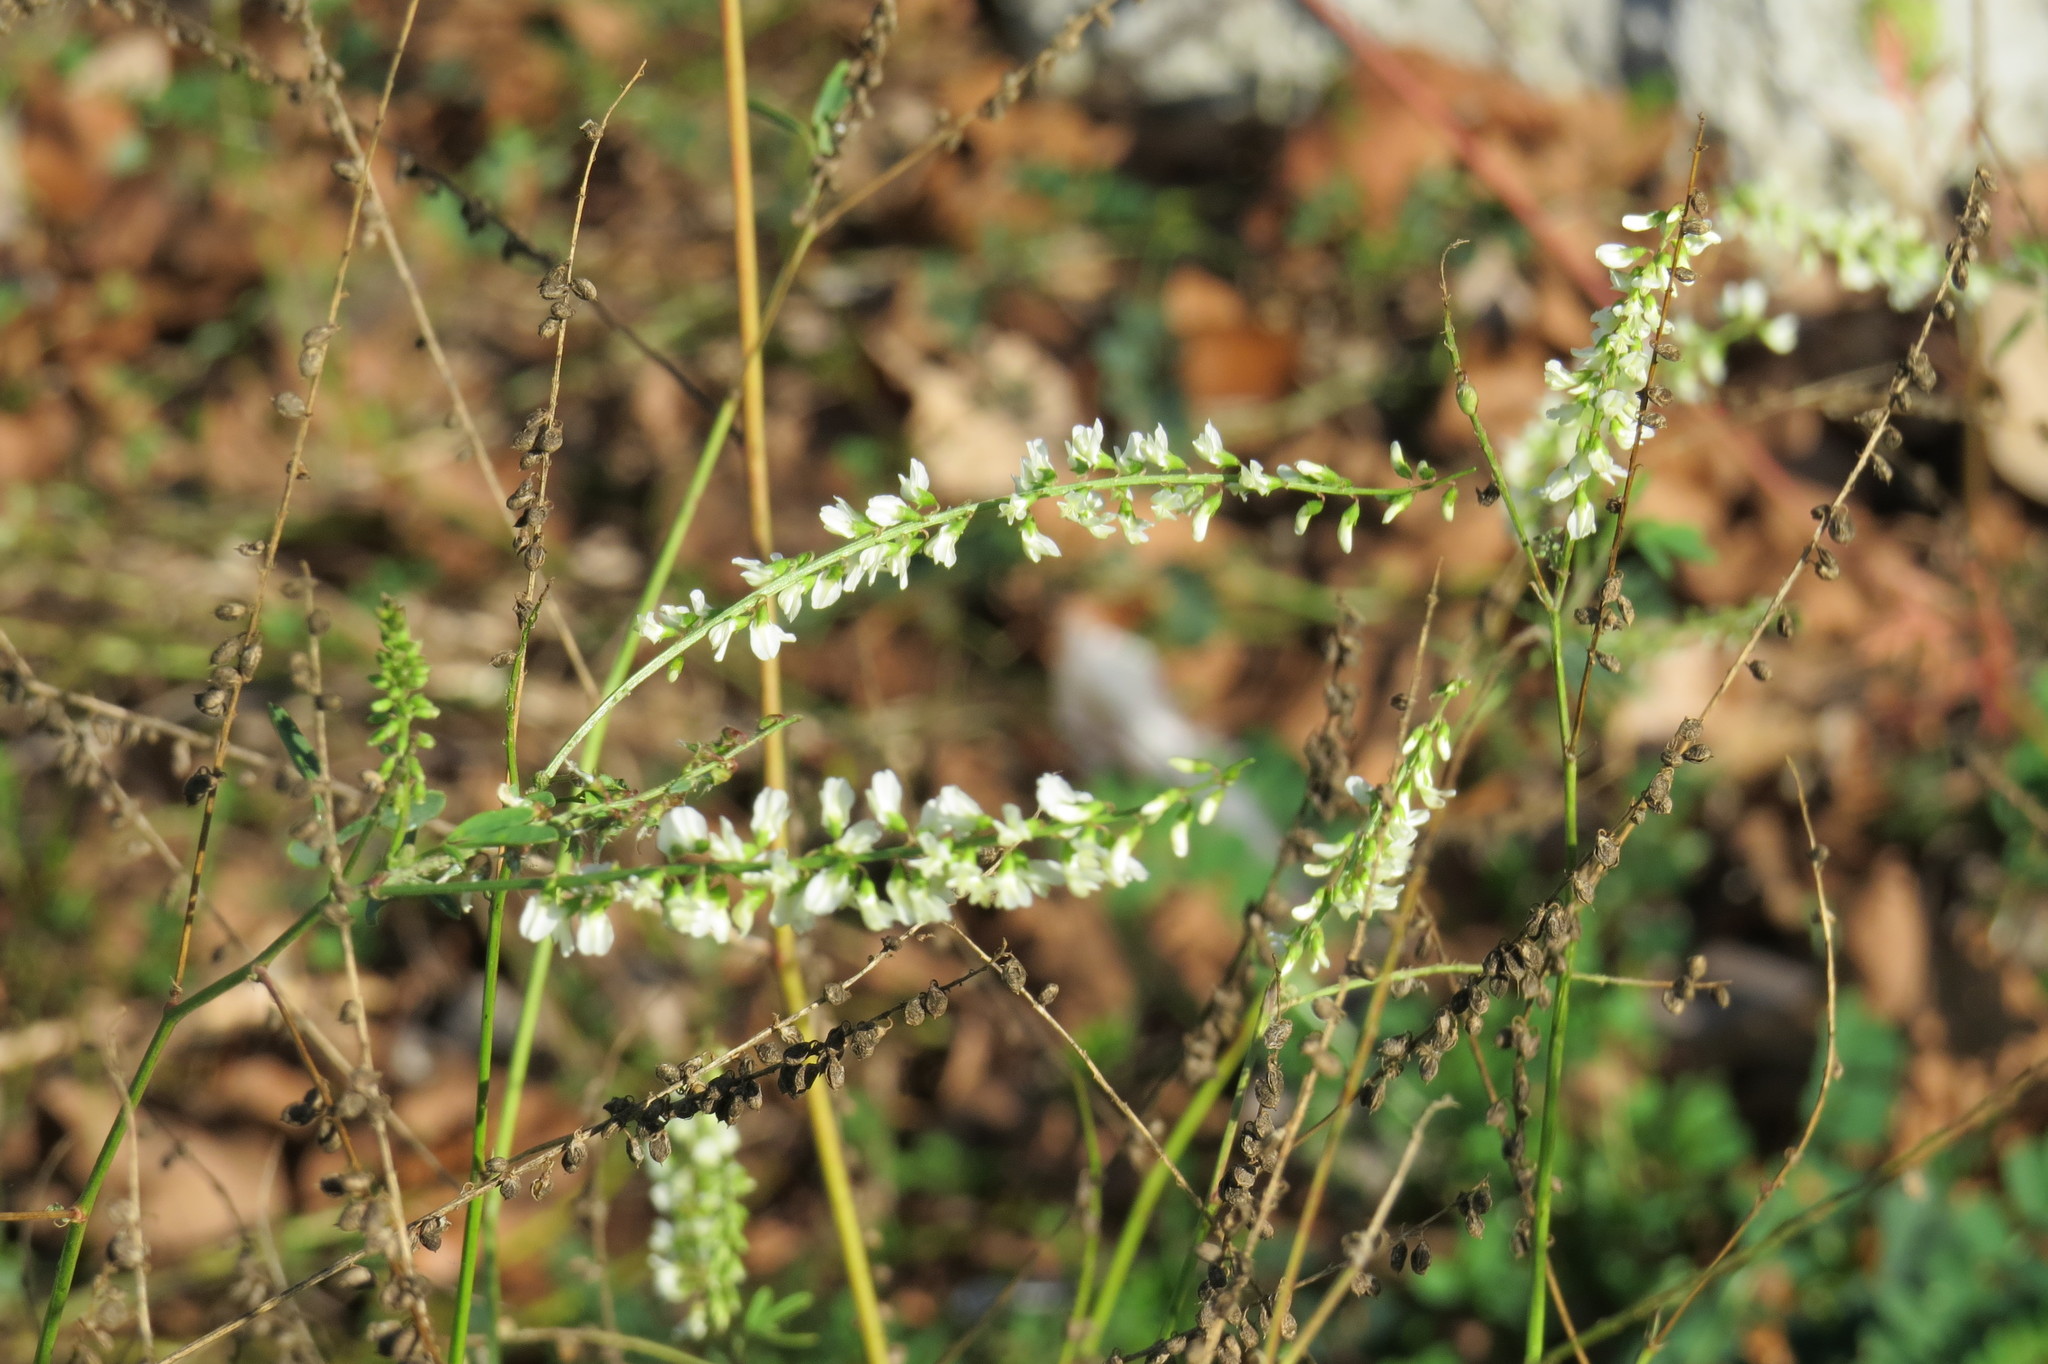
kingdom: Plantae
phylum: Tracheophyta
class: Magnoliopsida
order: Fabales
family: Fabaceae
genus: Melilotus
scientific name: Melilotus albus
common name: White melilot
